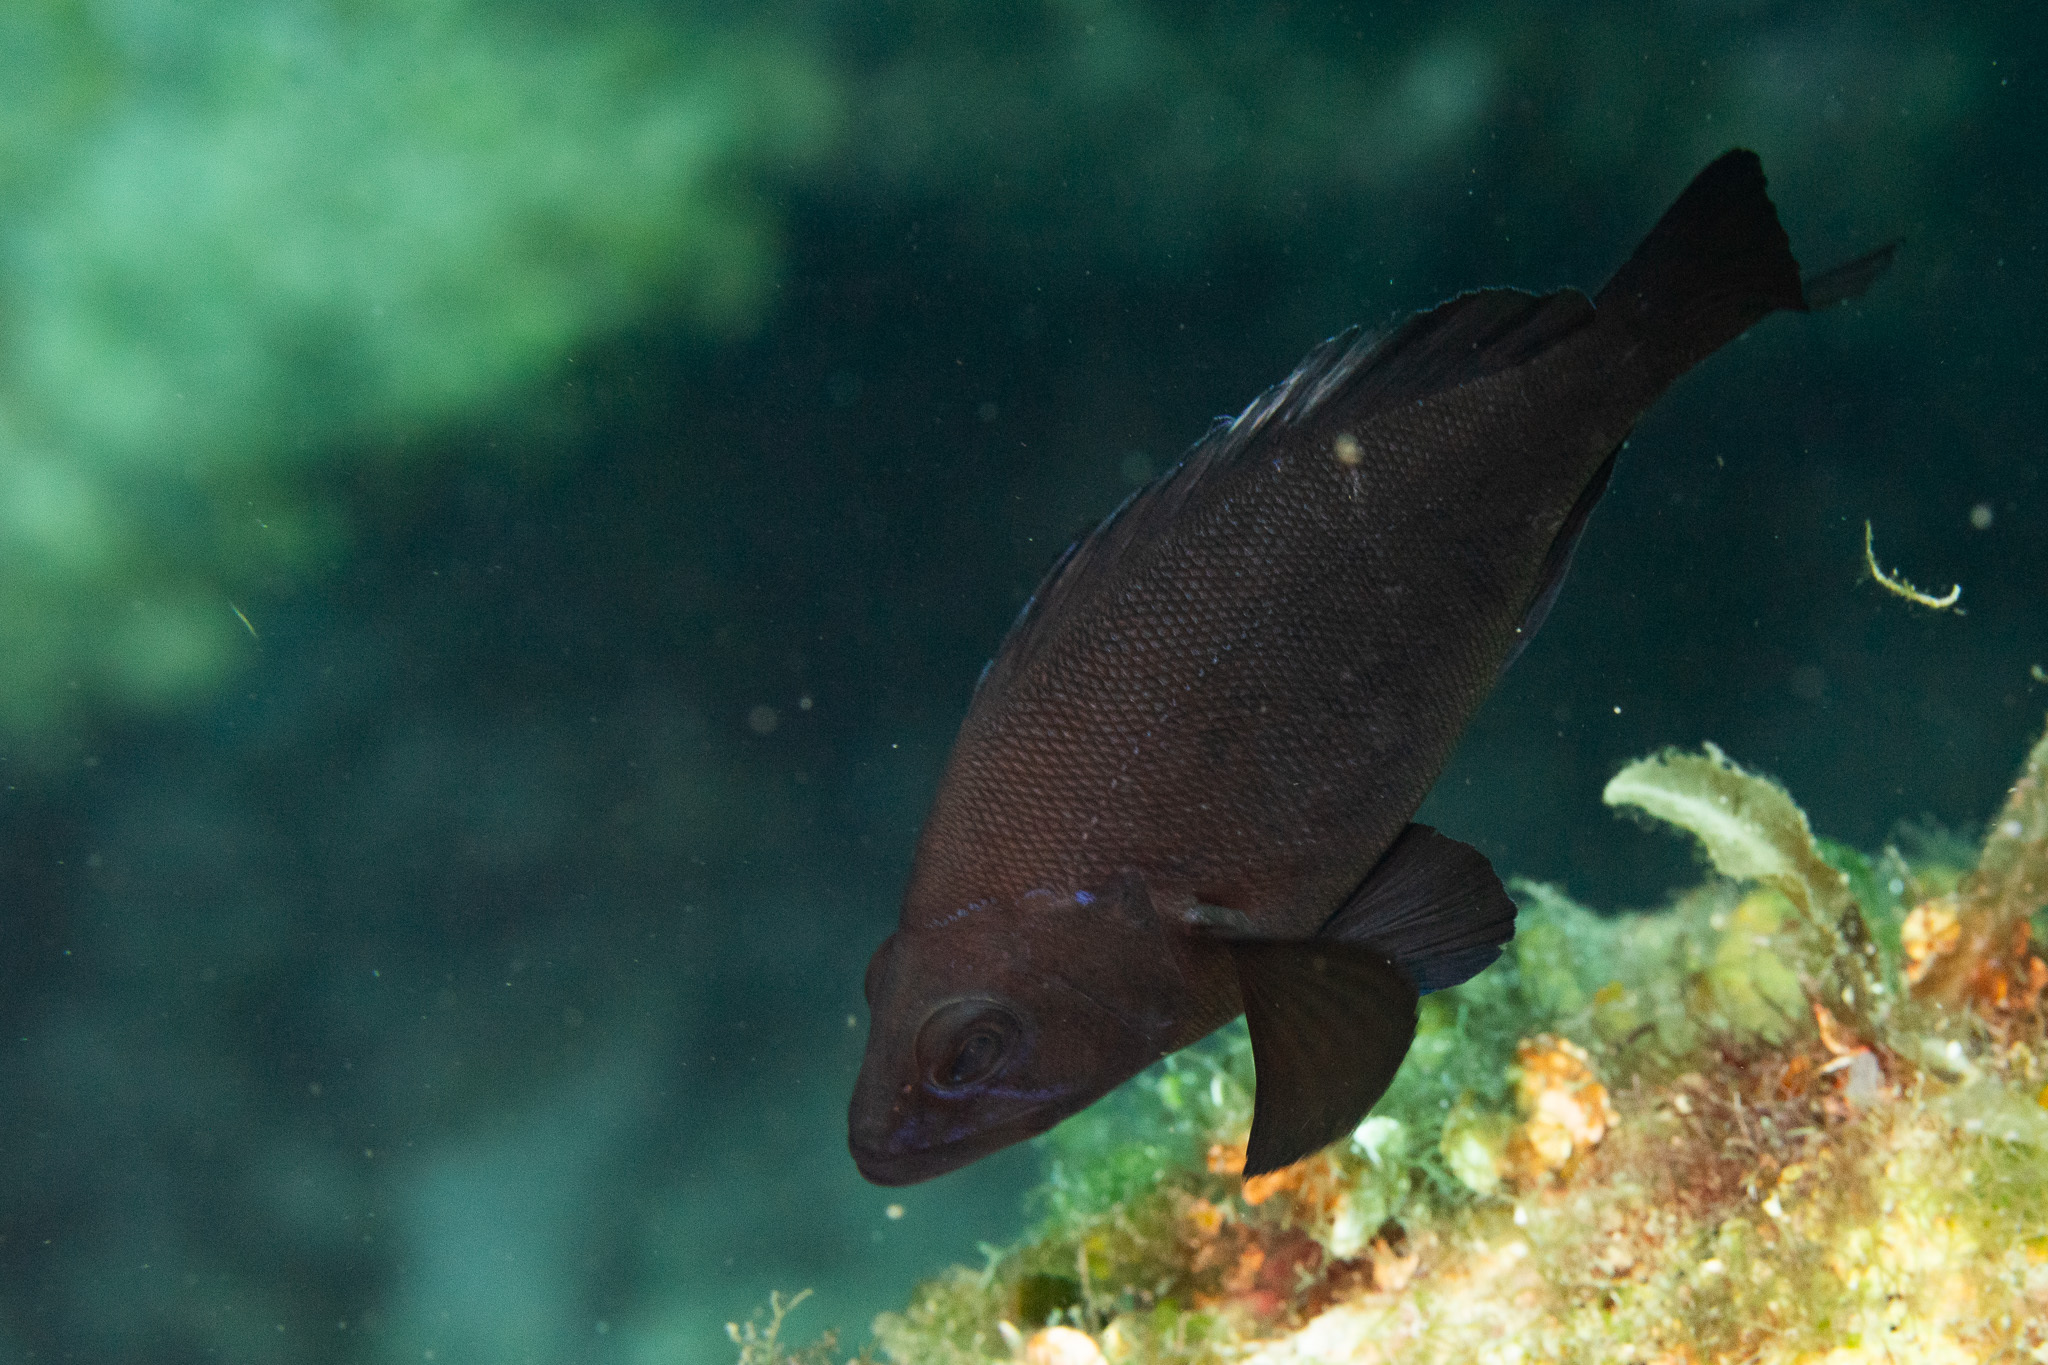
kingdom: Animalia
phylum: Chordata
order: Perciformes
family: Serranidae
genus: Hypoplectrus
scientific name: Hypoplectrus nigricans
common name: Black hamlet
